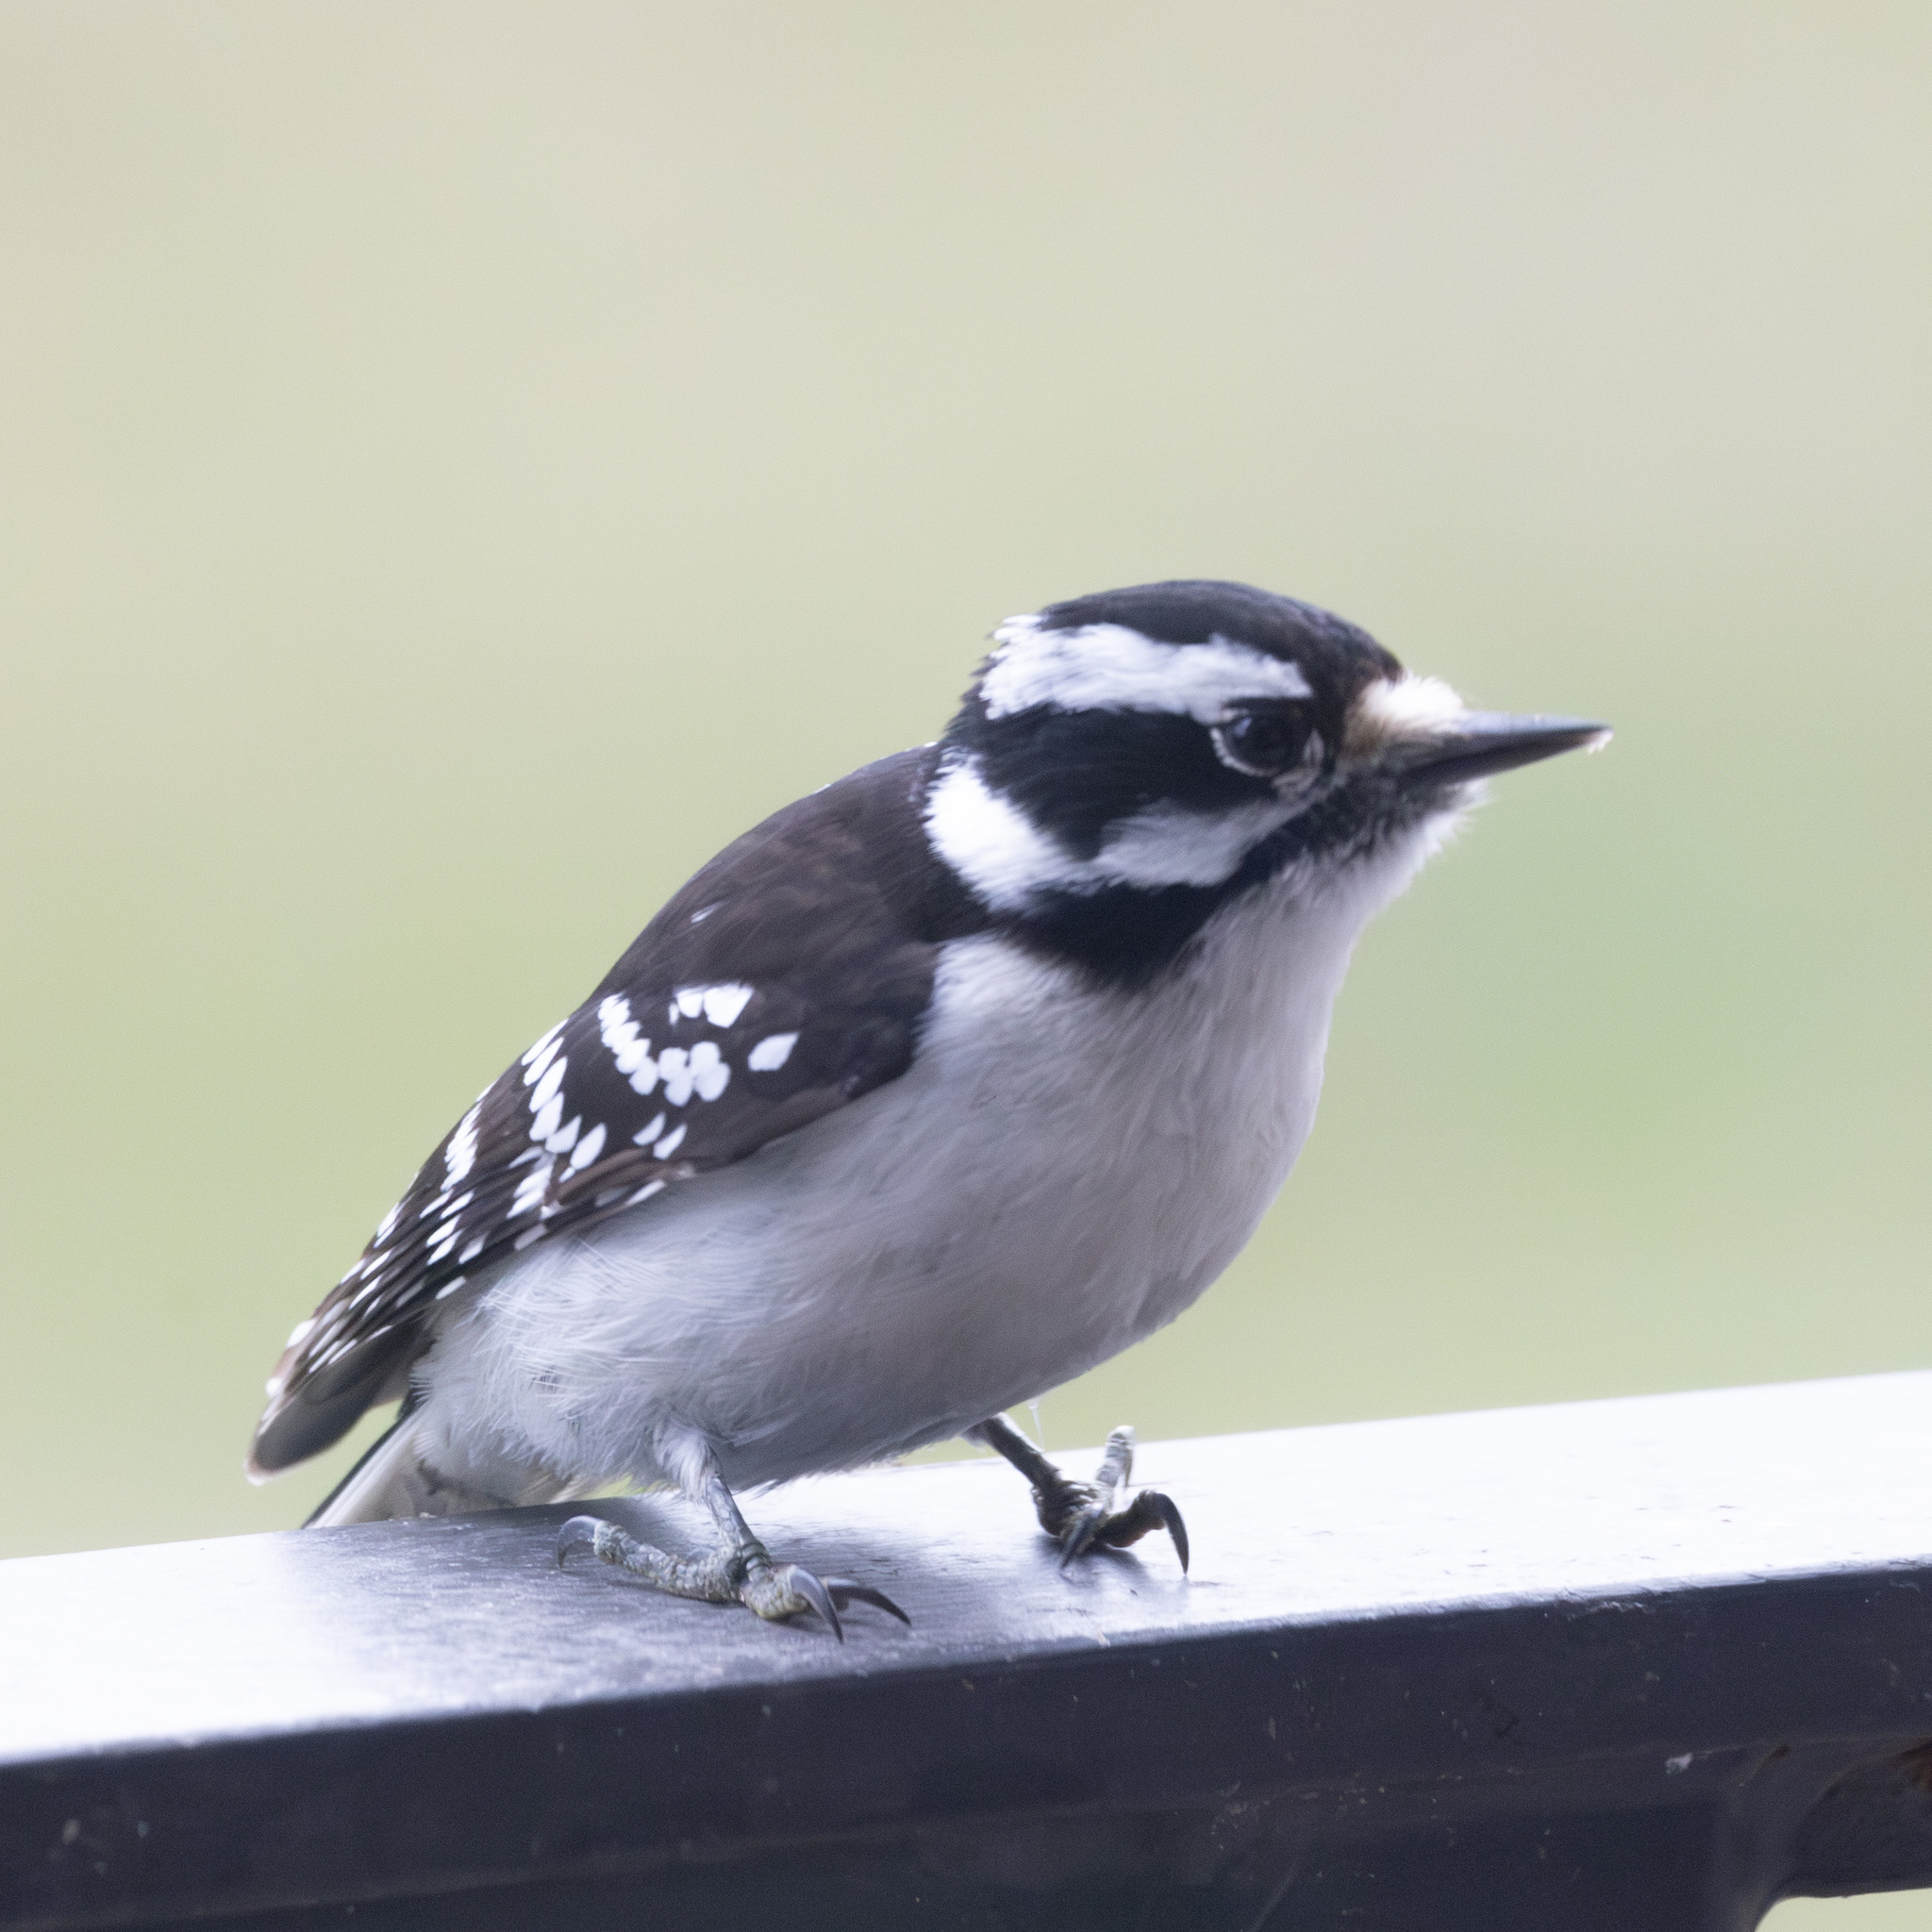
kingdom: Animalia
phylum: Chordata
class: Aves
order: Piciformes
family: Picidae
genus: Dryobates
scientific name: Dryobates pubescens
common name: Downy woodpecker
